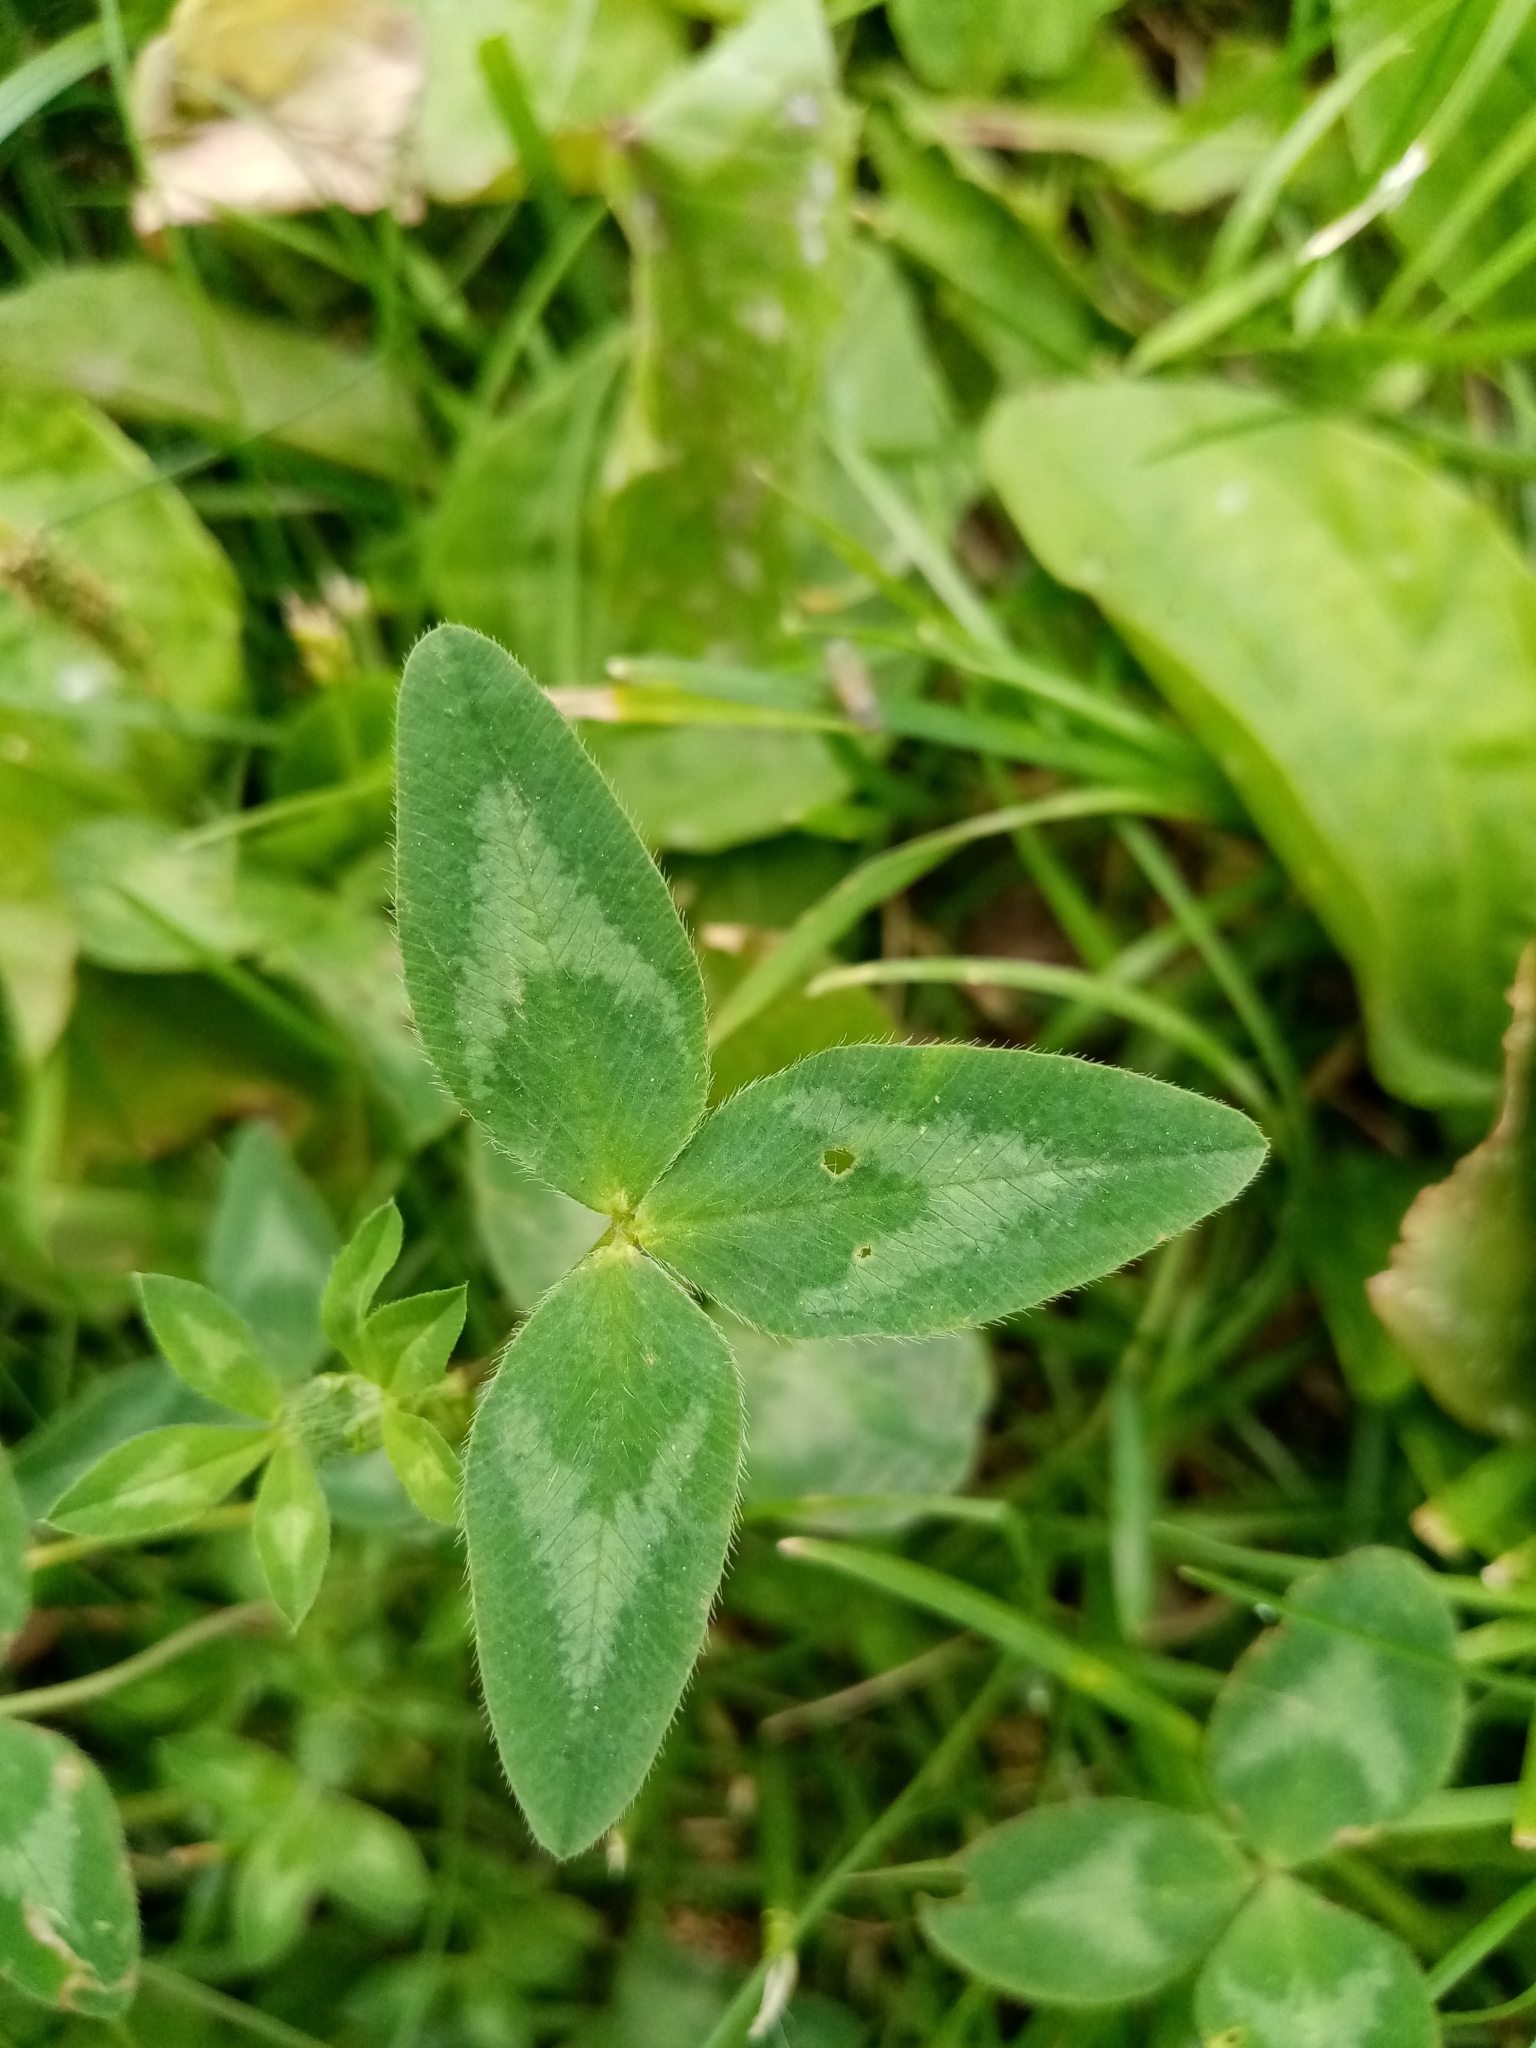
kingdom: Plantae
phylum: Tracheophyta
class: Magnoliopsida
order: Fabales
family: Fabaceae
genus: Trifolium
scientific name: Trifolium pratense
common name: Red clover
